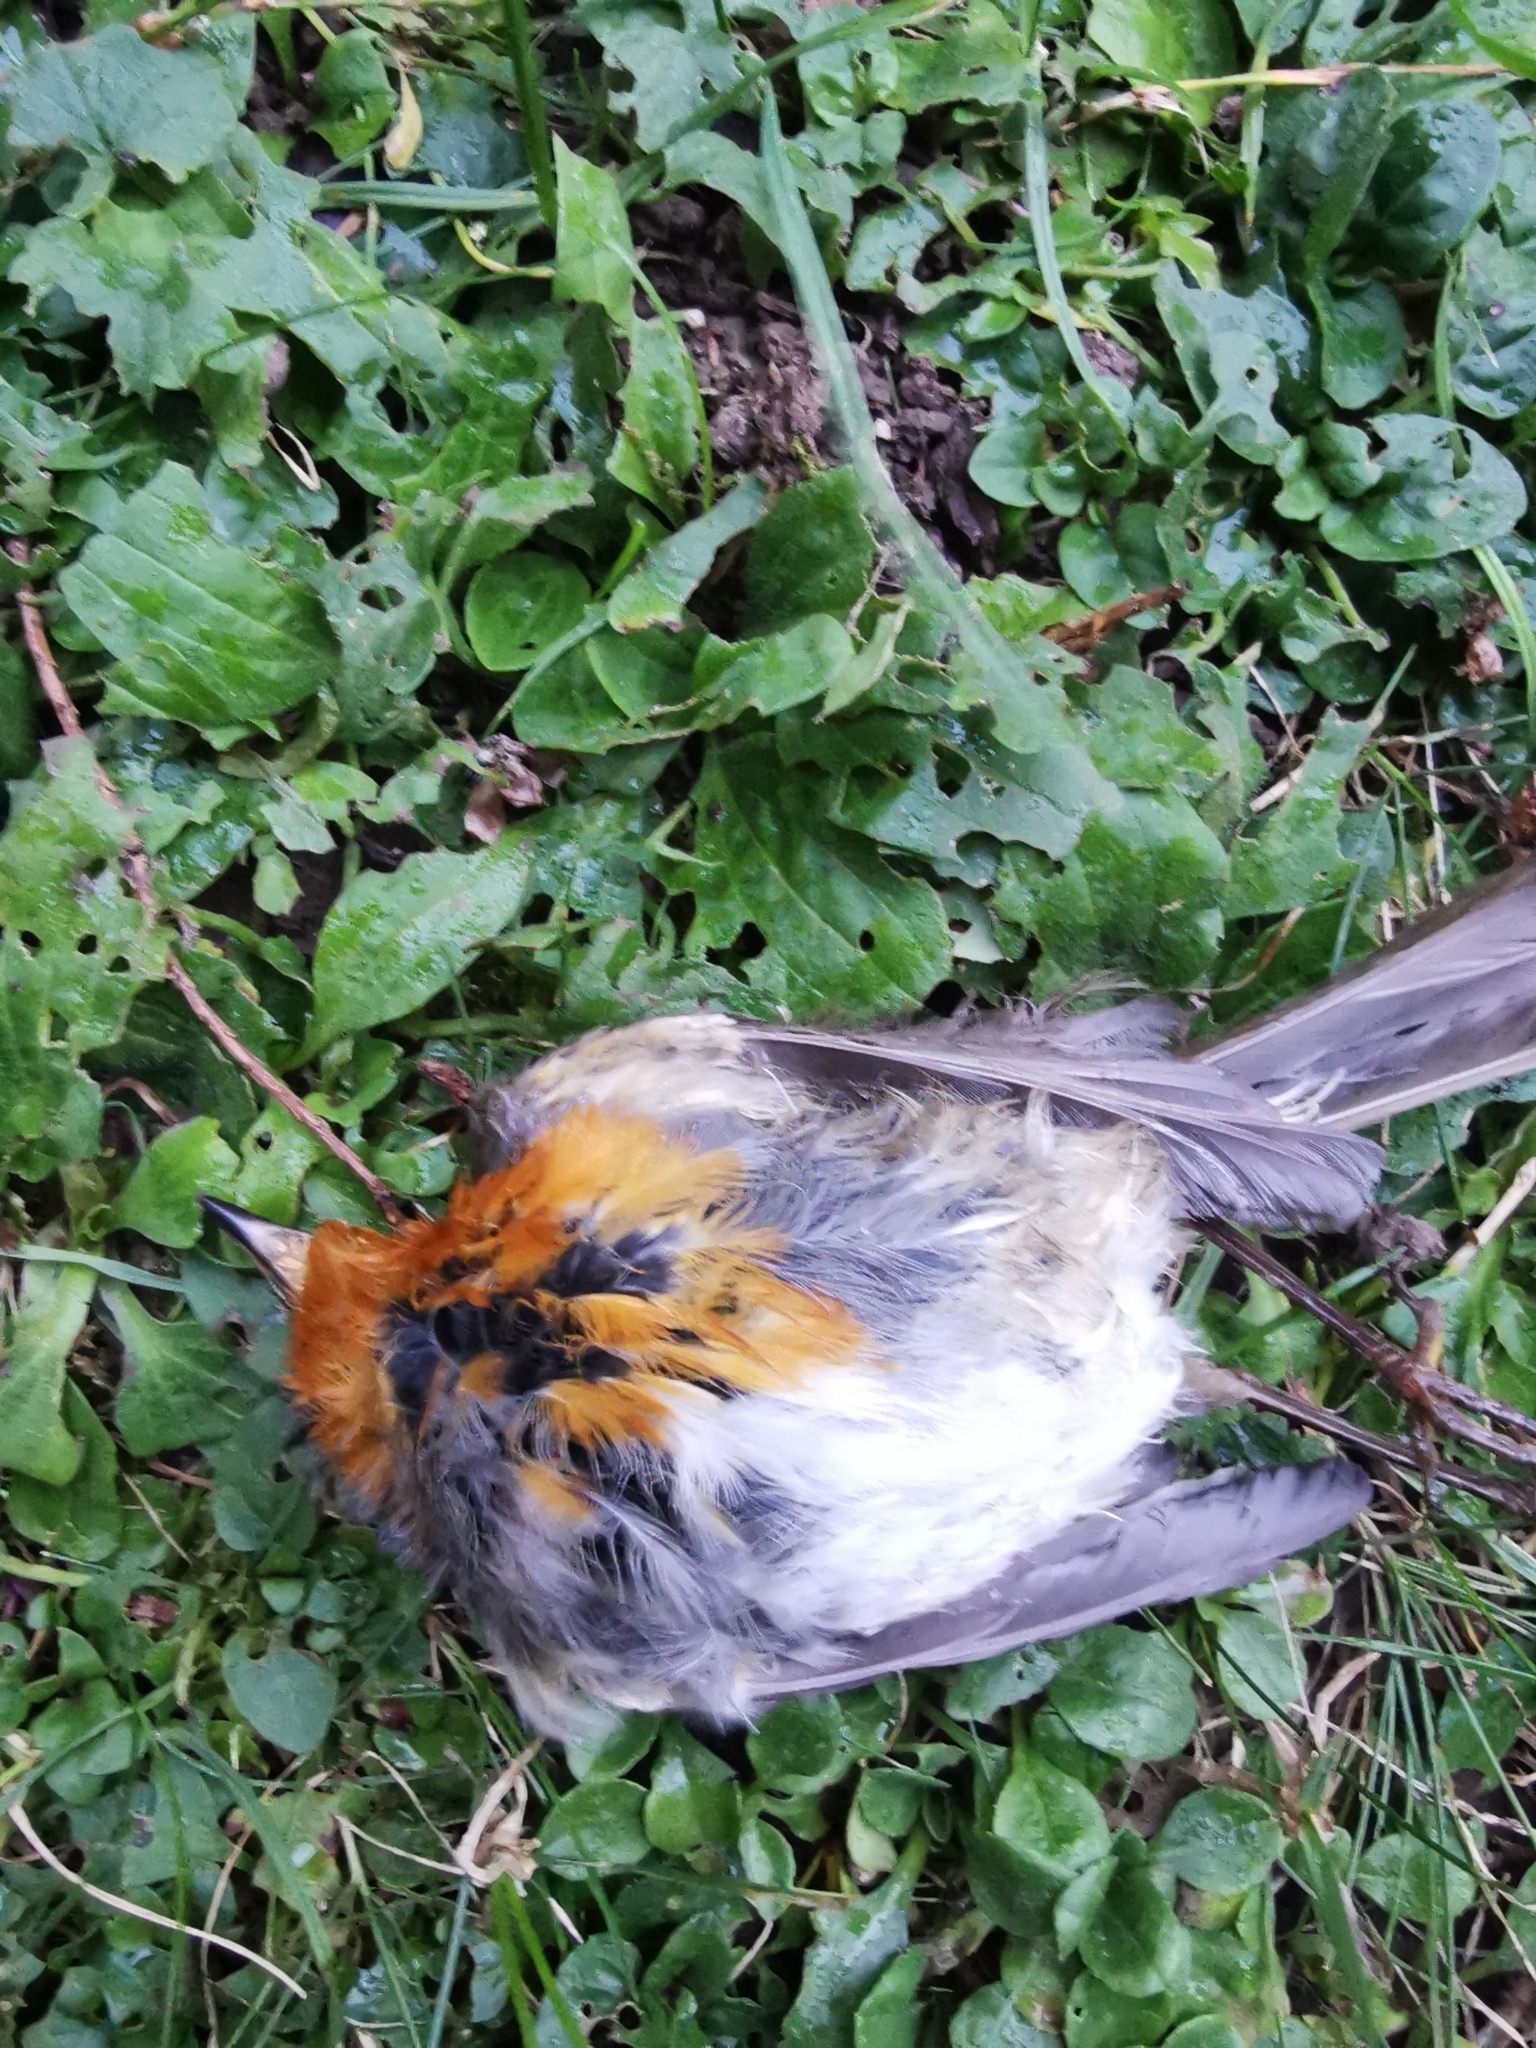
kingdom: Animalia
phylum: Chordata
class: Aves
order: Passeriformes
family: Muscicapidae
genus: Erithacus
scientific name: Erithacus rubecula
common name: European robin
